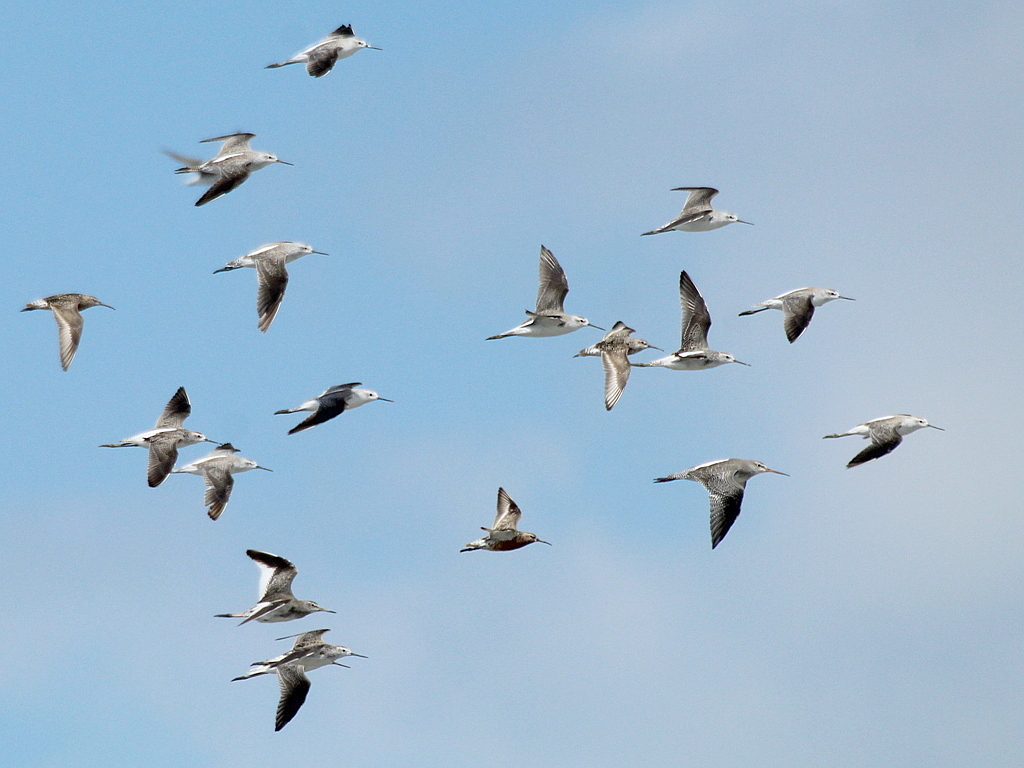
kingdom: Animalia
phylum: Chordata
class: Aves
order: Charadriiformes
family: Scolopacidae
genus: Tringa
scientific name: Tringa stagnatilis
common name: Marsh sandpiper
